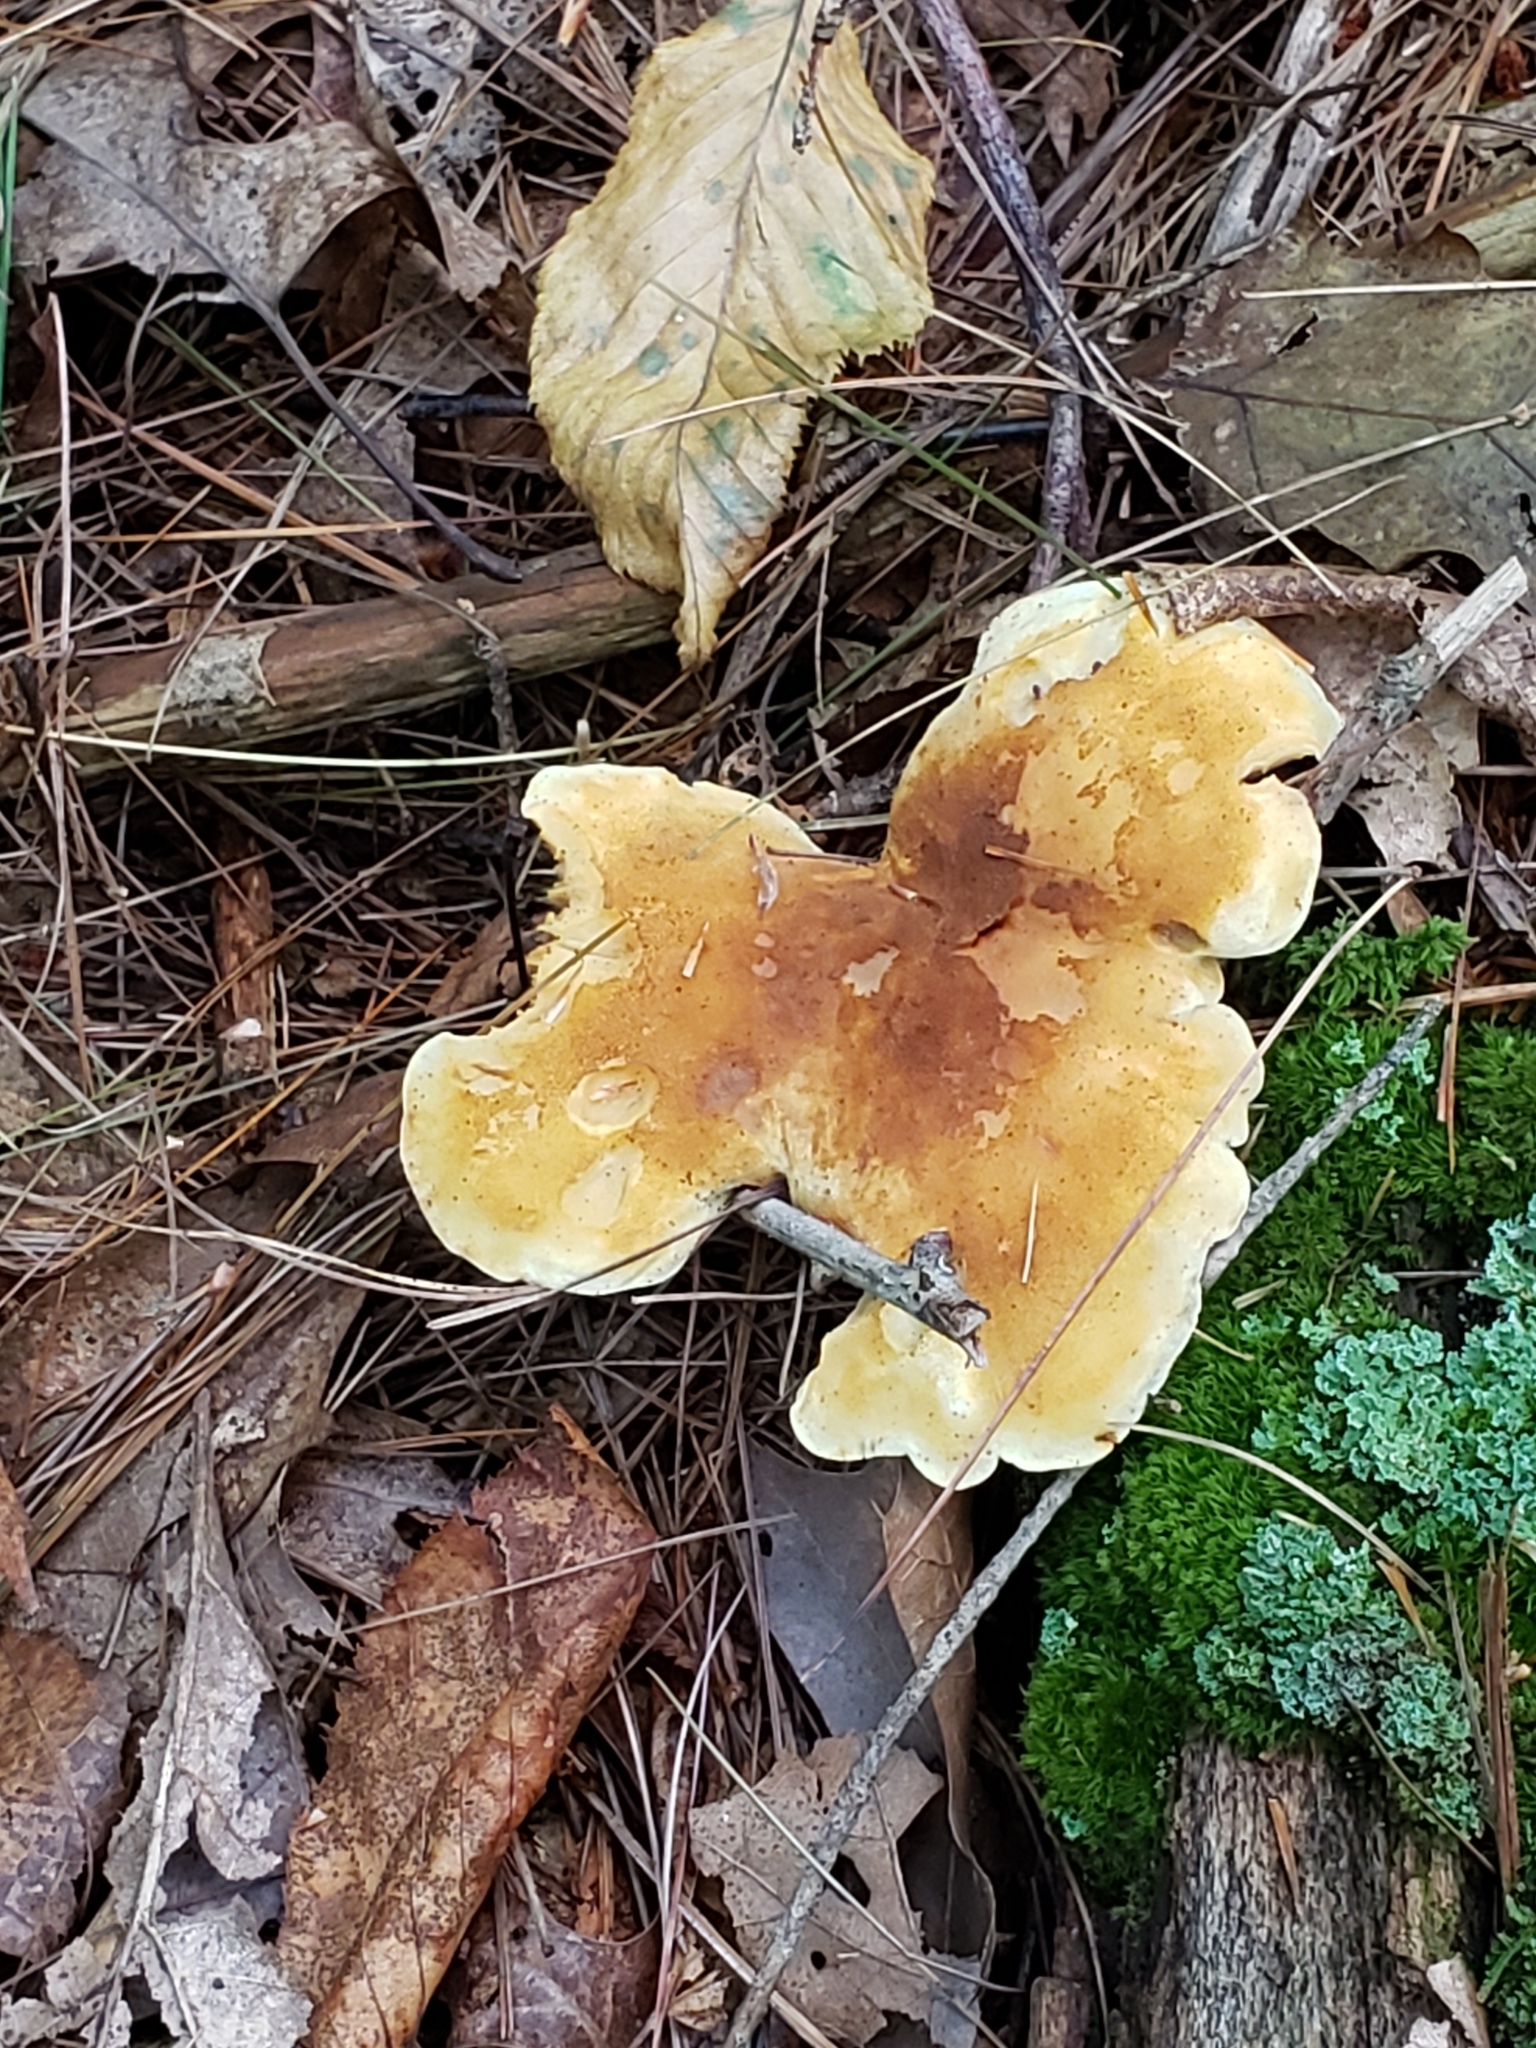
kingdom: Fungi
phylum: Basidiomycota
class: Agaricomycetes
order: Boletales
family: Tapinellaceae
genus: Tapinella
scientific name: Tapinella atrotomentosa
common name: Velvet rollrim
